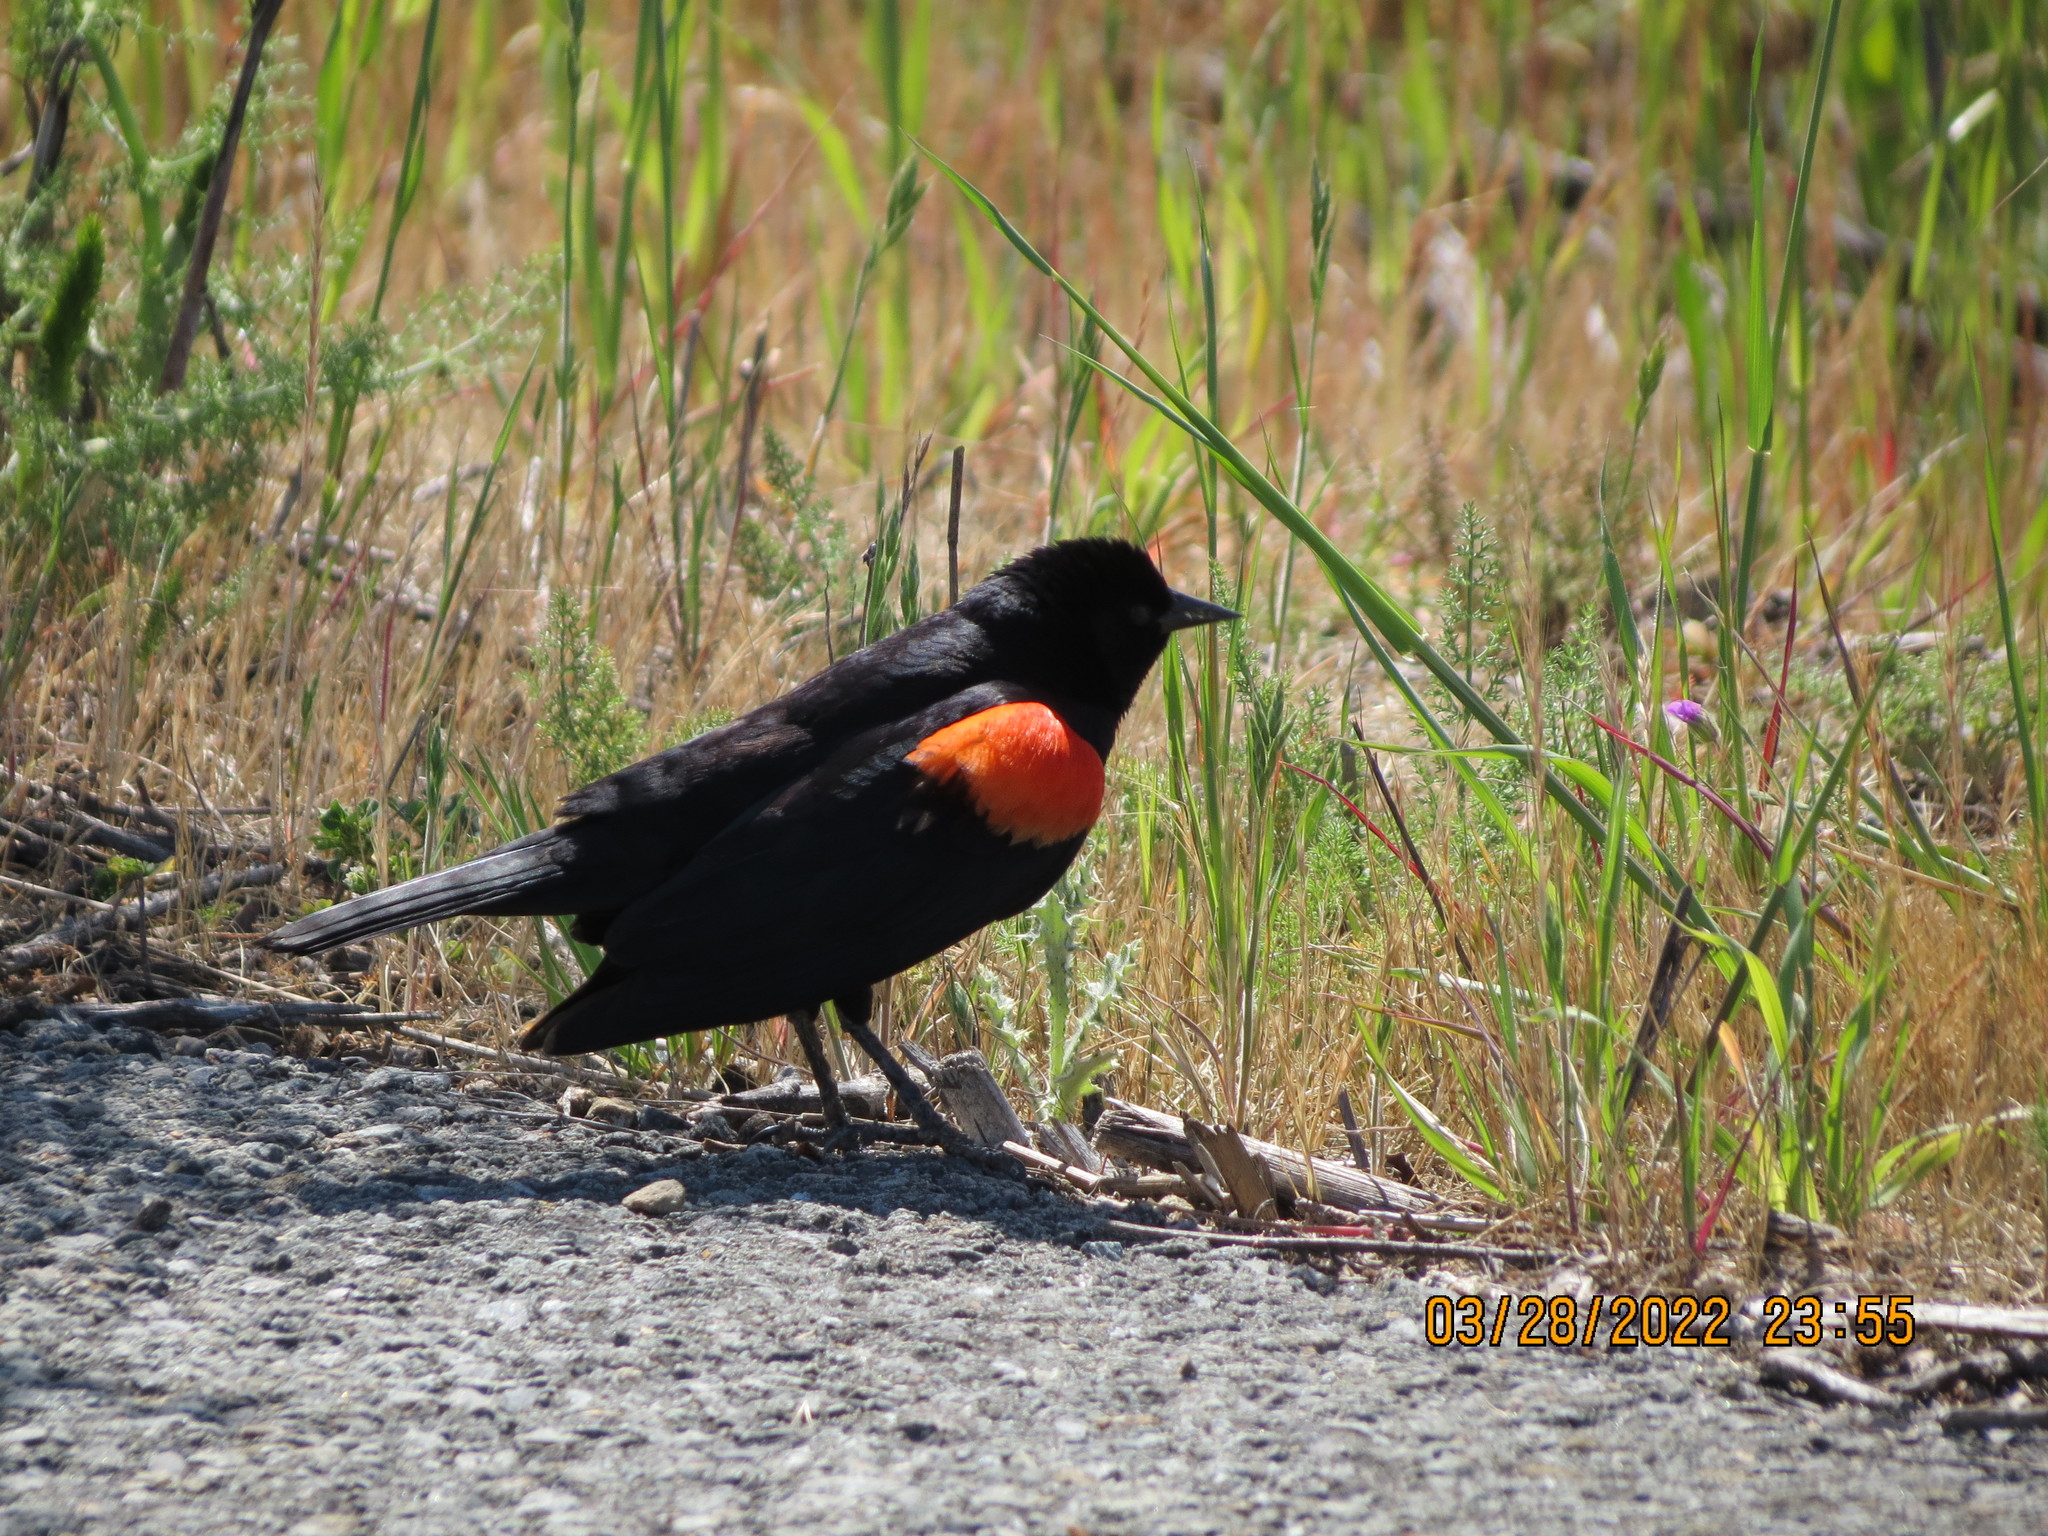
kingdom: Animalia
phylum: Chordata
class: Aves
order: Passeriformes
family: Icteridae
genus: Agelaius
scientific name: Agelaius phoeniceus
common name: Red-winged blackbird
